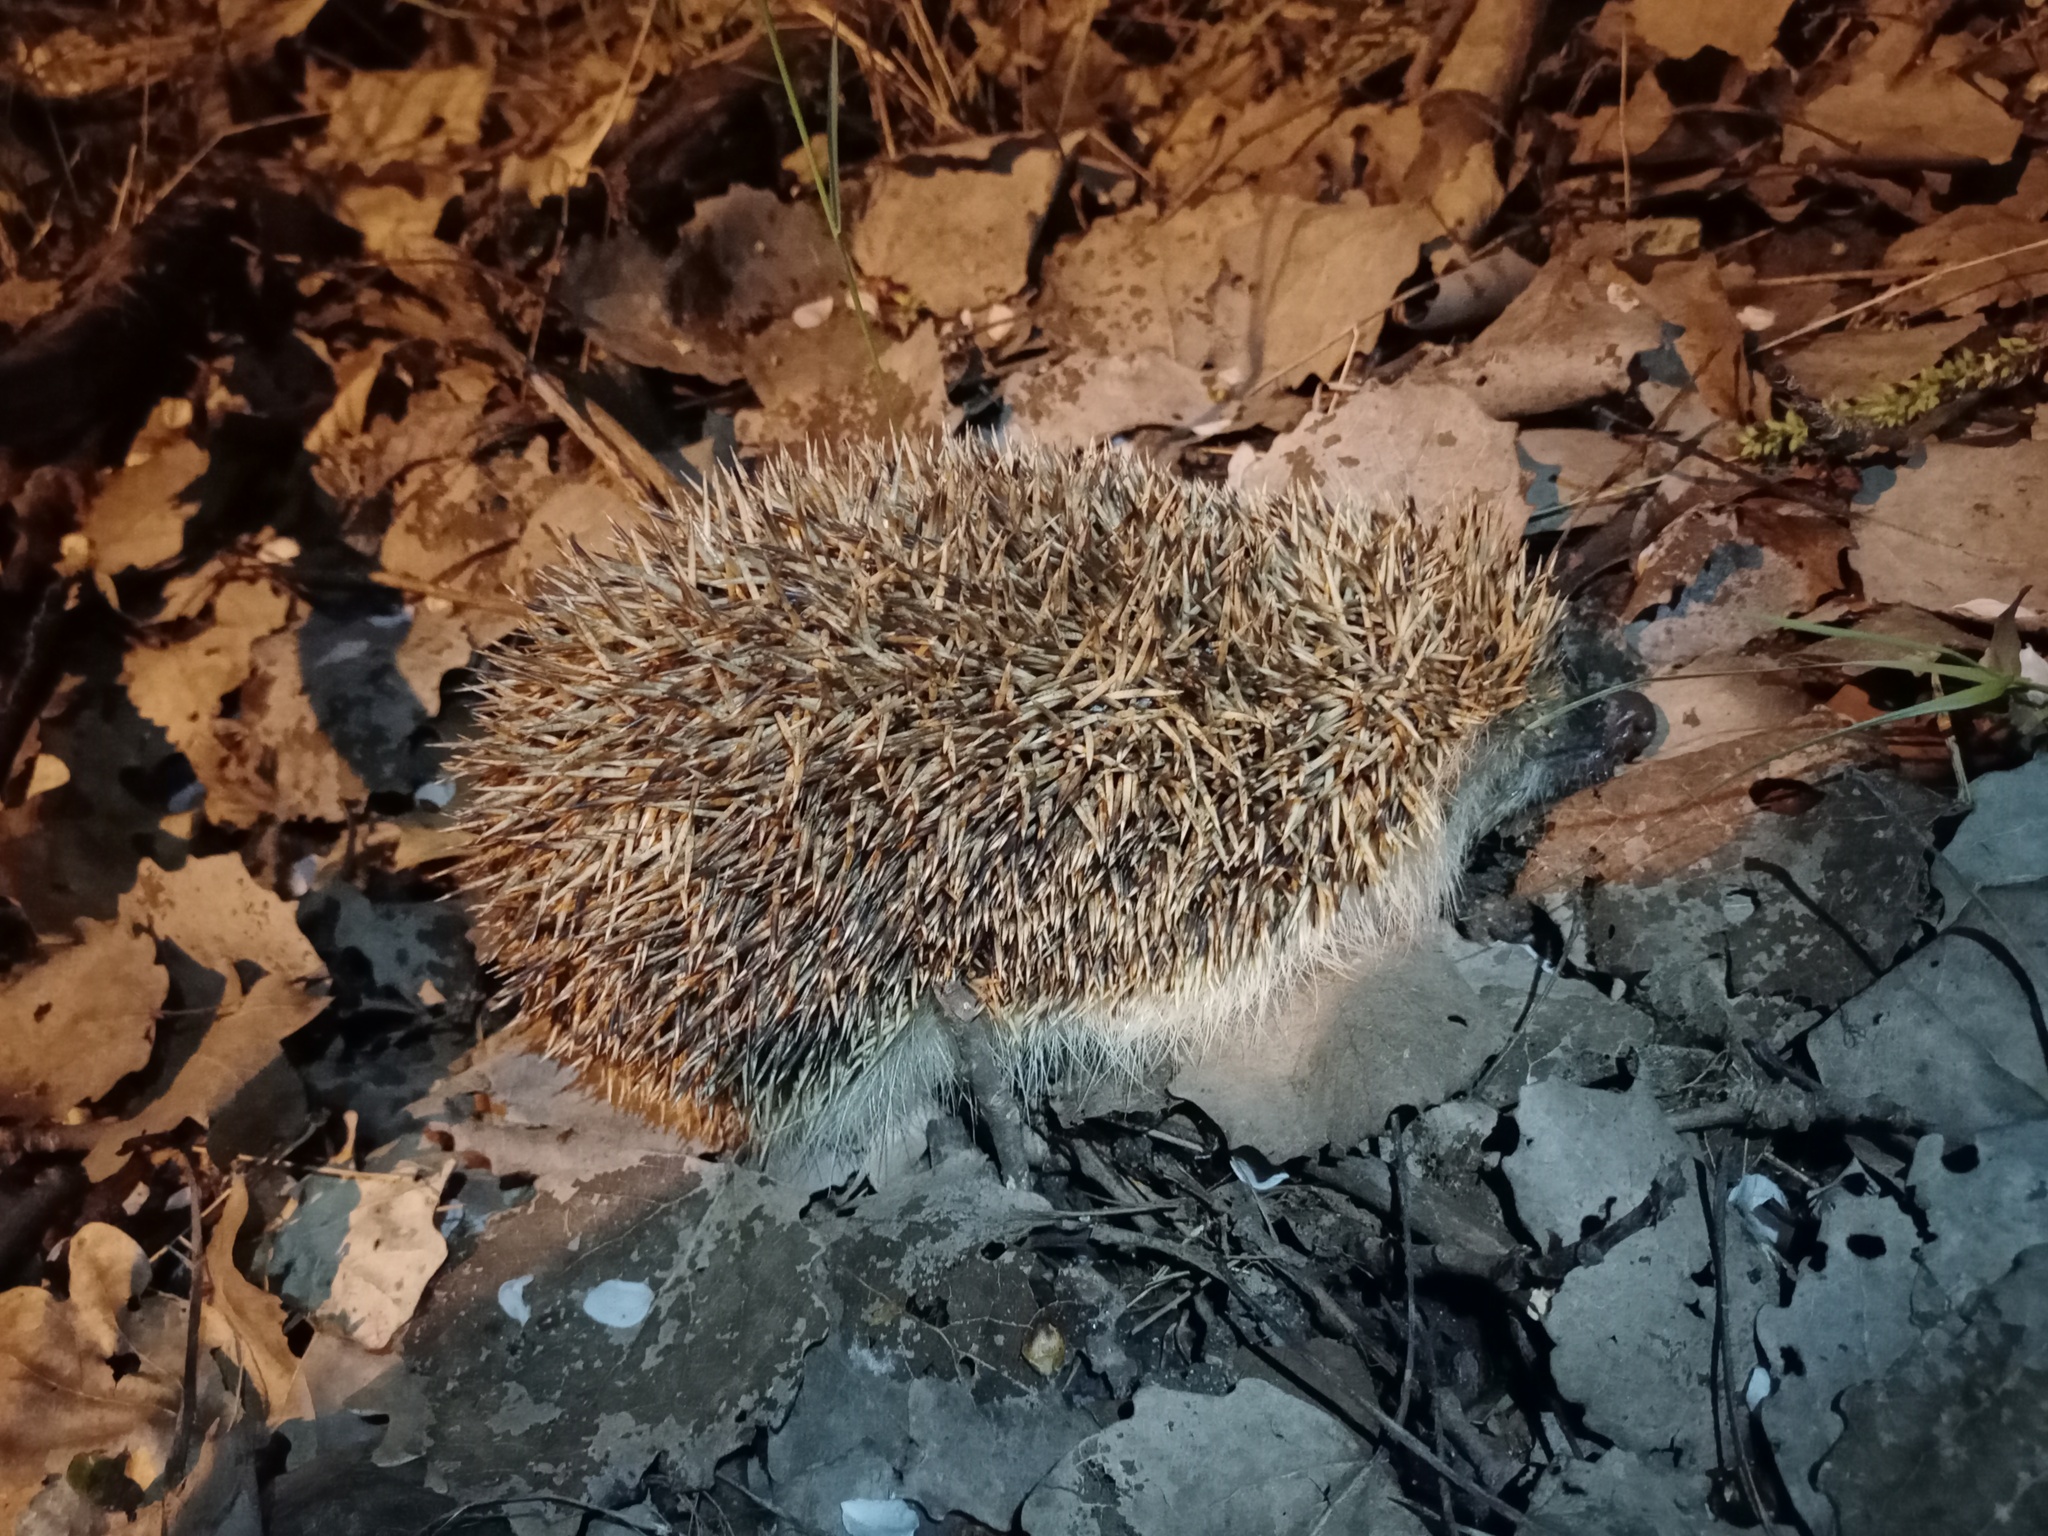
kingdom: Animalia
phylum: Chordata
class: Mammalia
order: Erinaceomorpha
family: Erinaceidae
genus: Erinaceus
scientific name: Erinaceus roumanicus
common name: Northern white-breasted hedgehog
